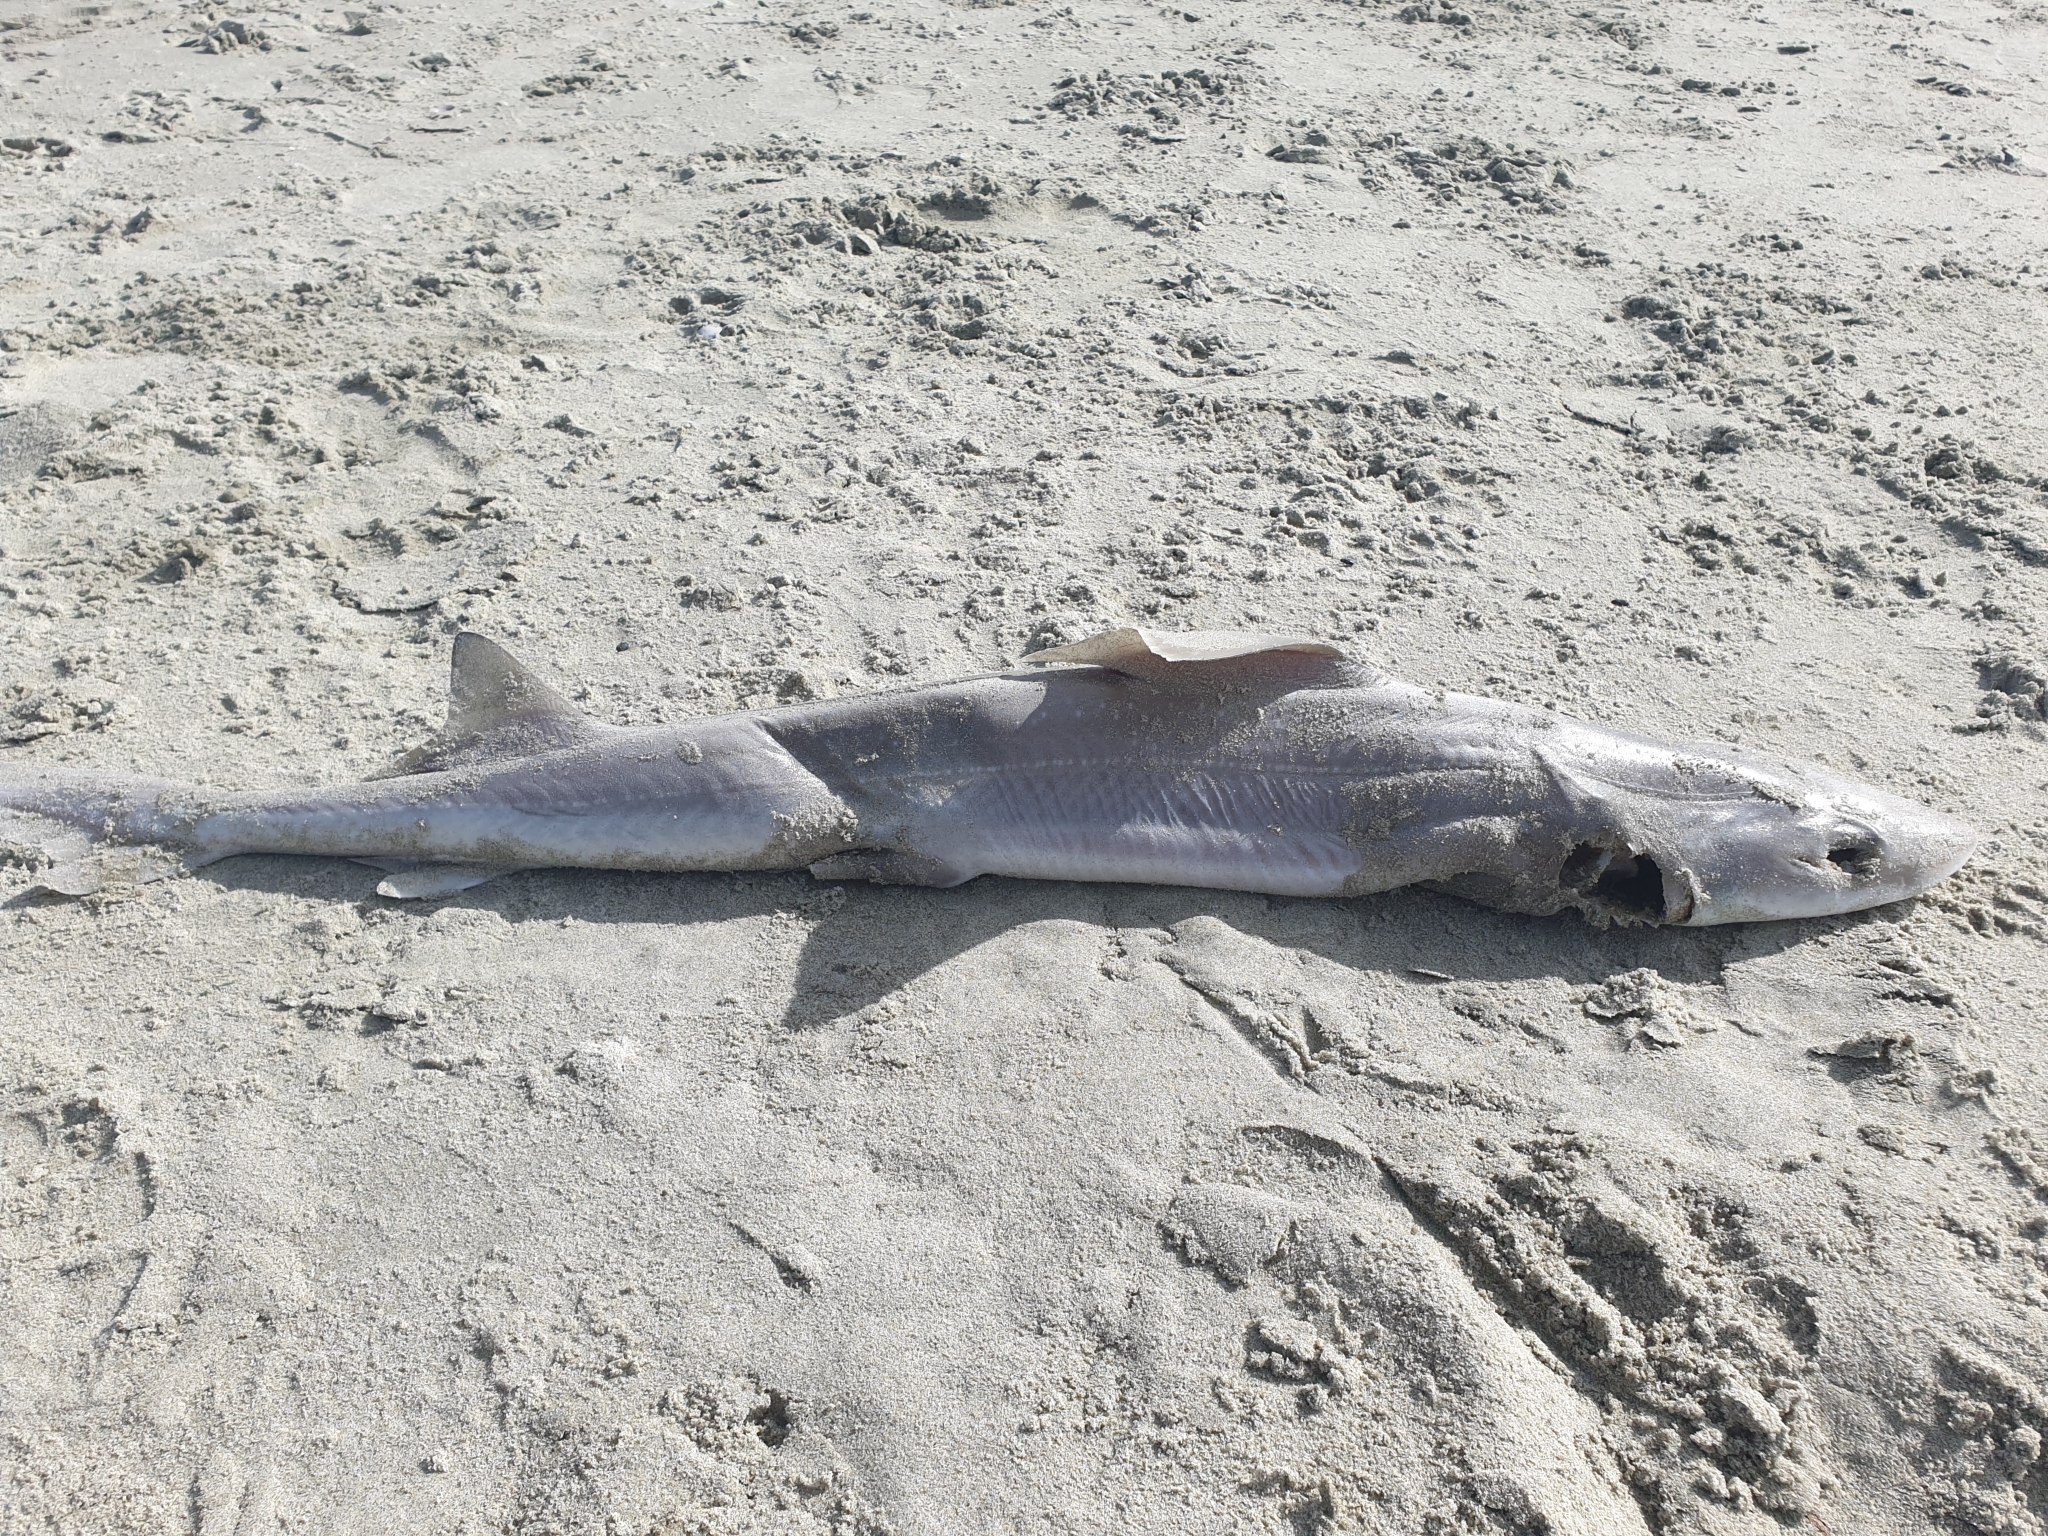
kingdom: Animalia
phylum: Chordata
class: Elasmobranchii
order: Carcharhiniformes
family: Triakidae
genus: Mustelus
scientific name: Mustelus lenticulatus
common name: Gummy shark
